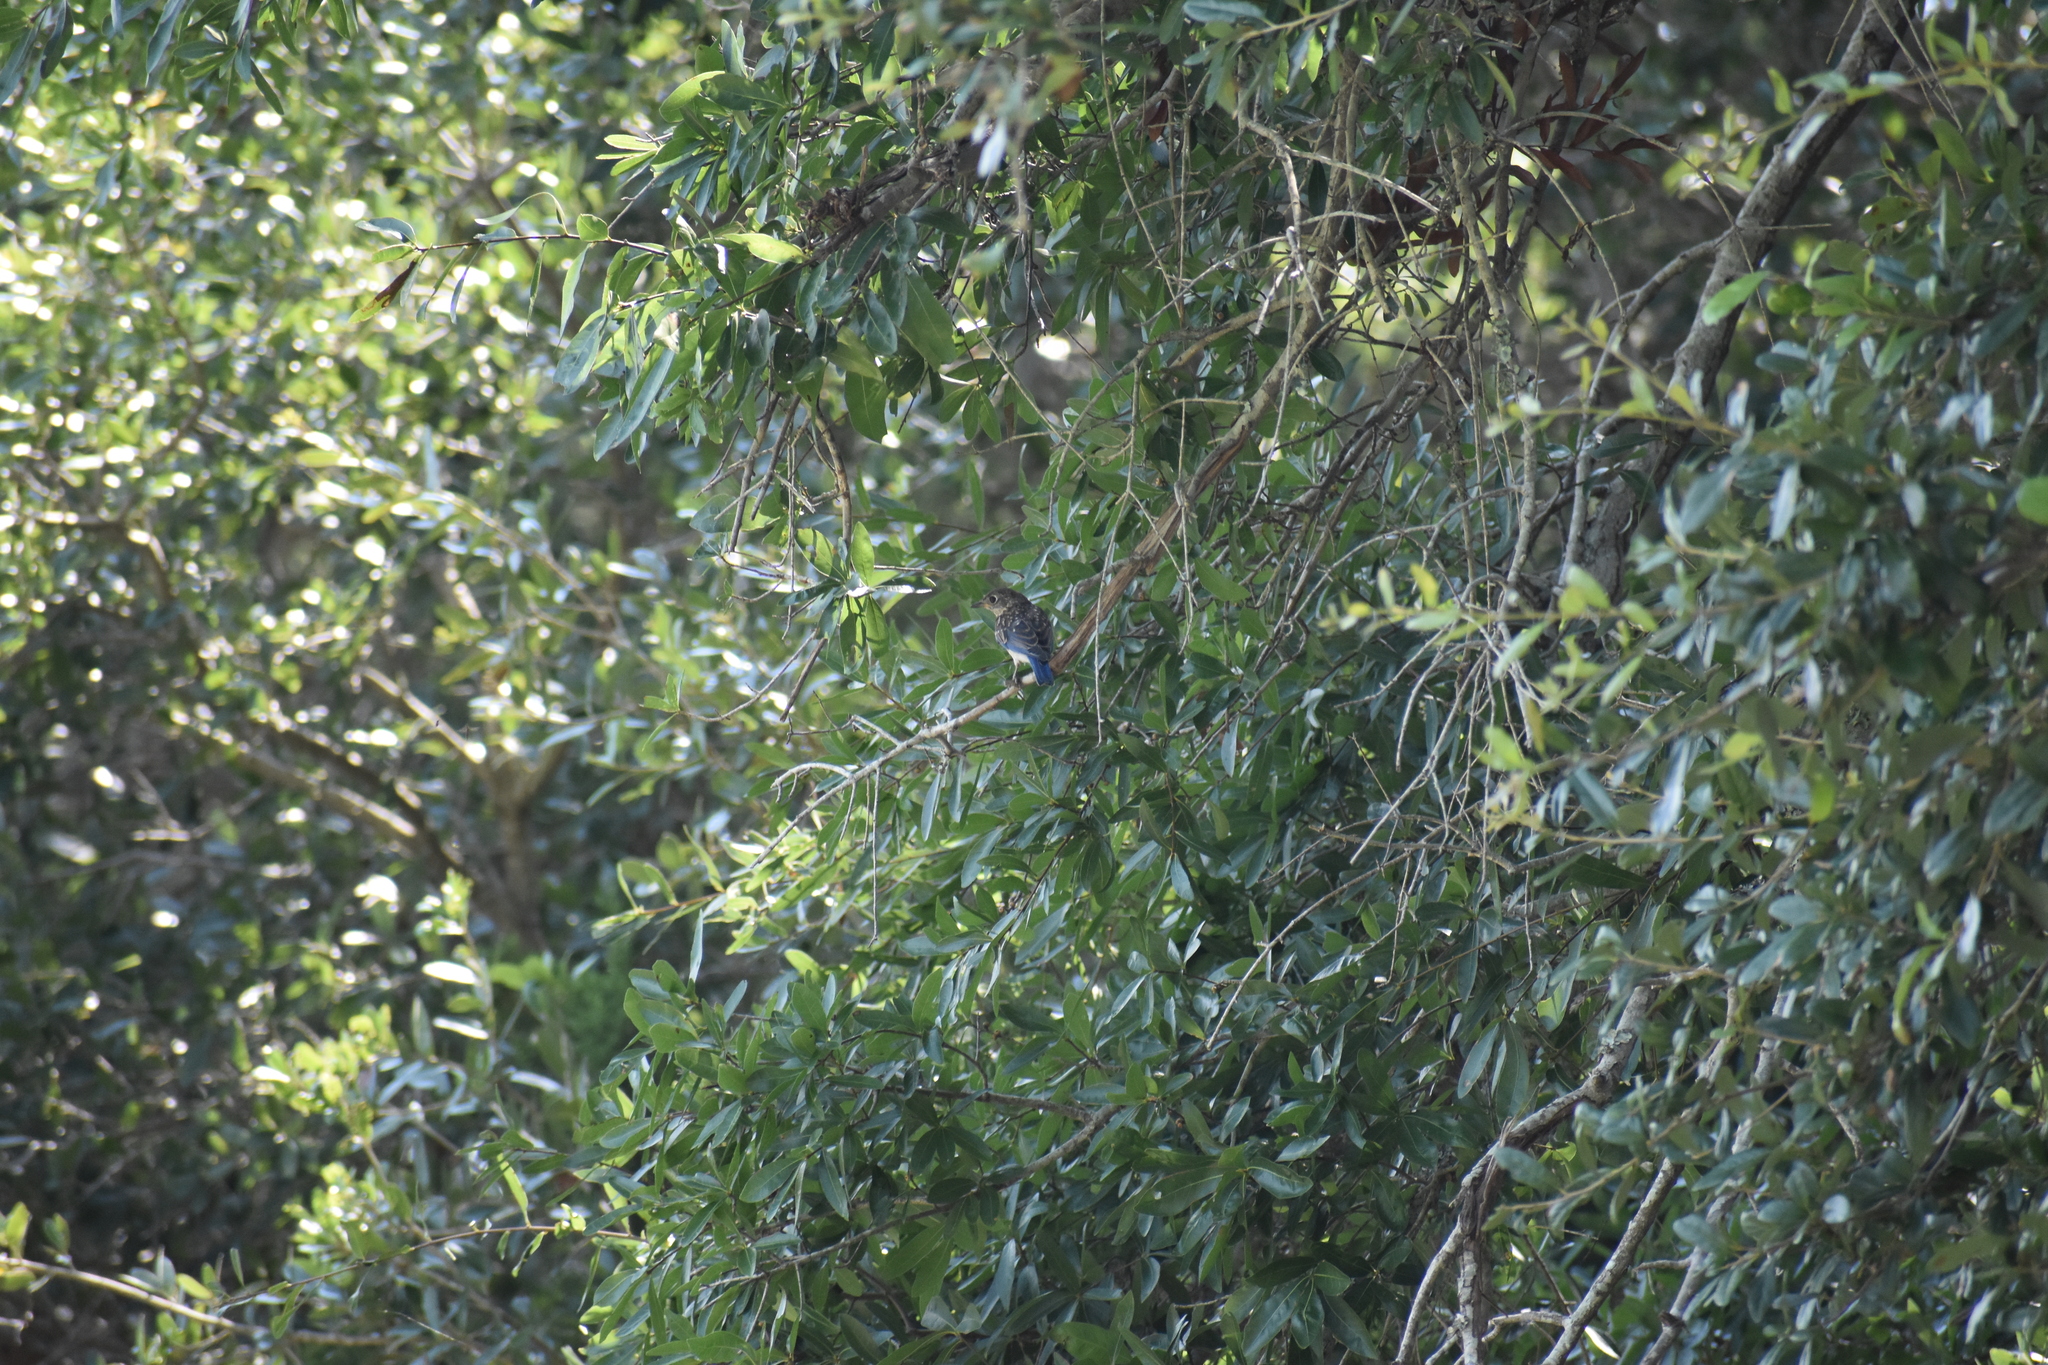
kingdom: Animalia
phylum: Chordata
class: Aves
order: Passeriformes
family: Turdidae
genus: Sialia
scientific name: Sialia sialis
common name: Eastern bluebird
